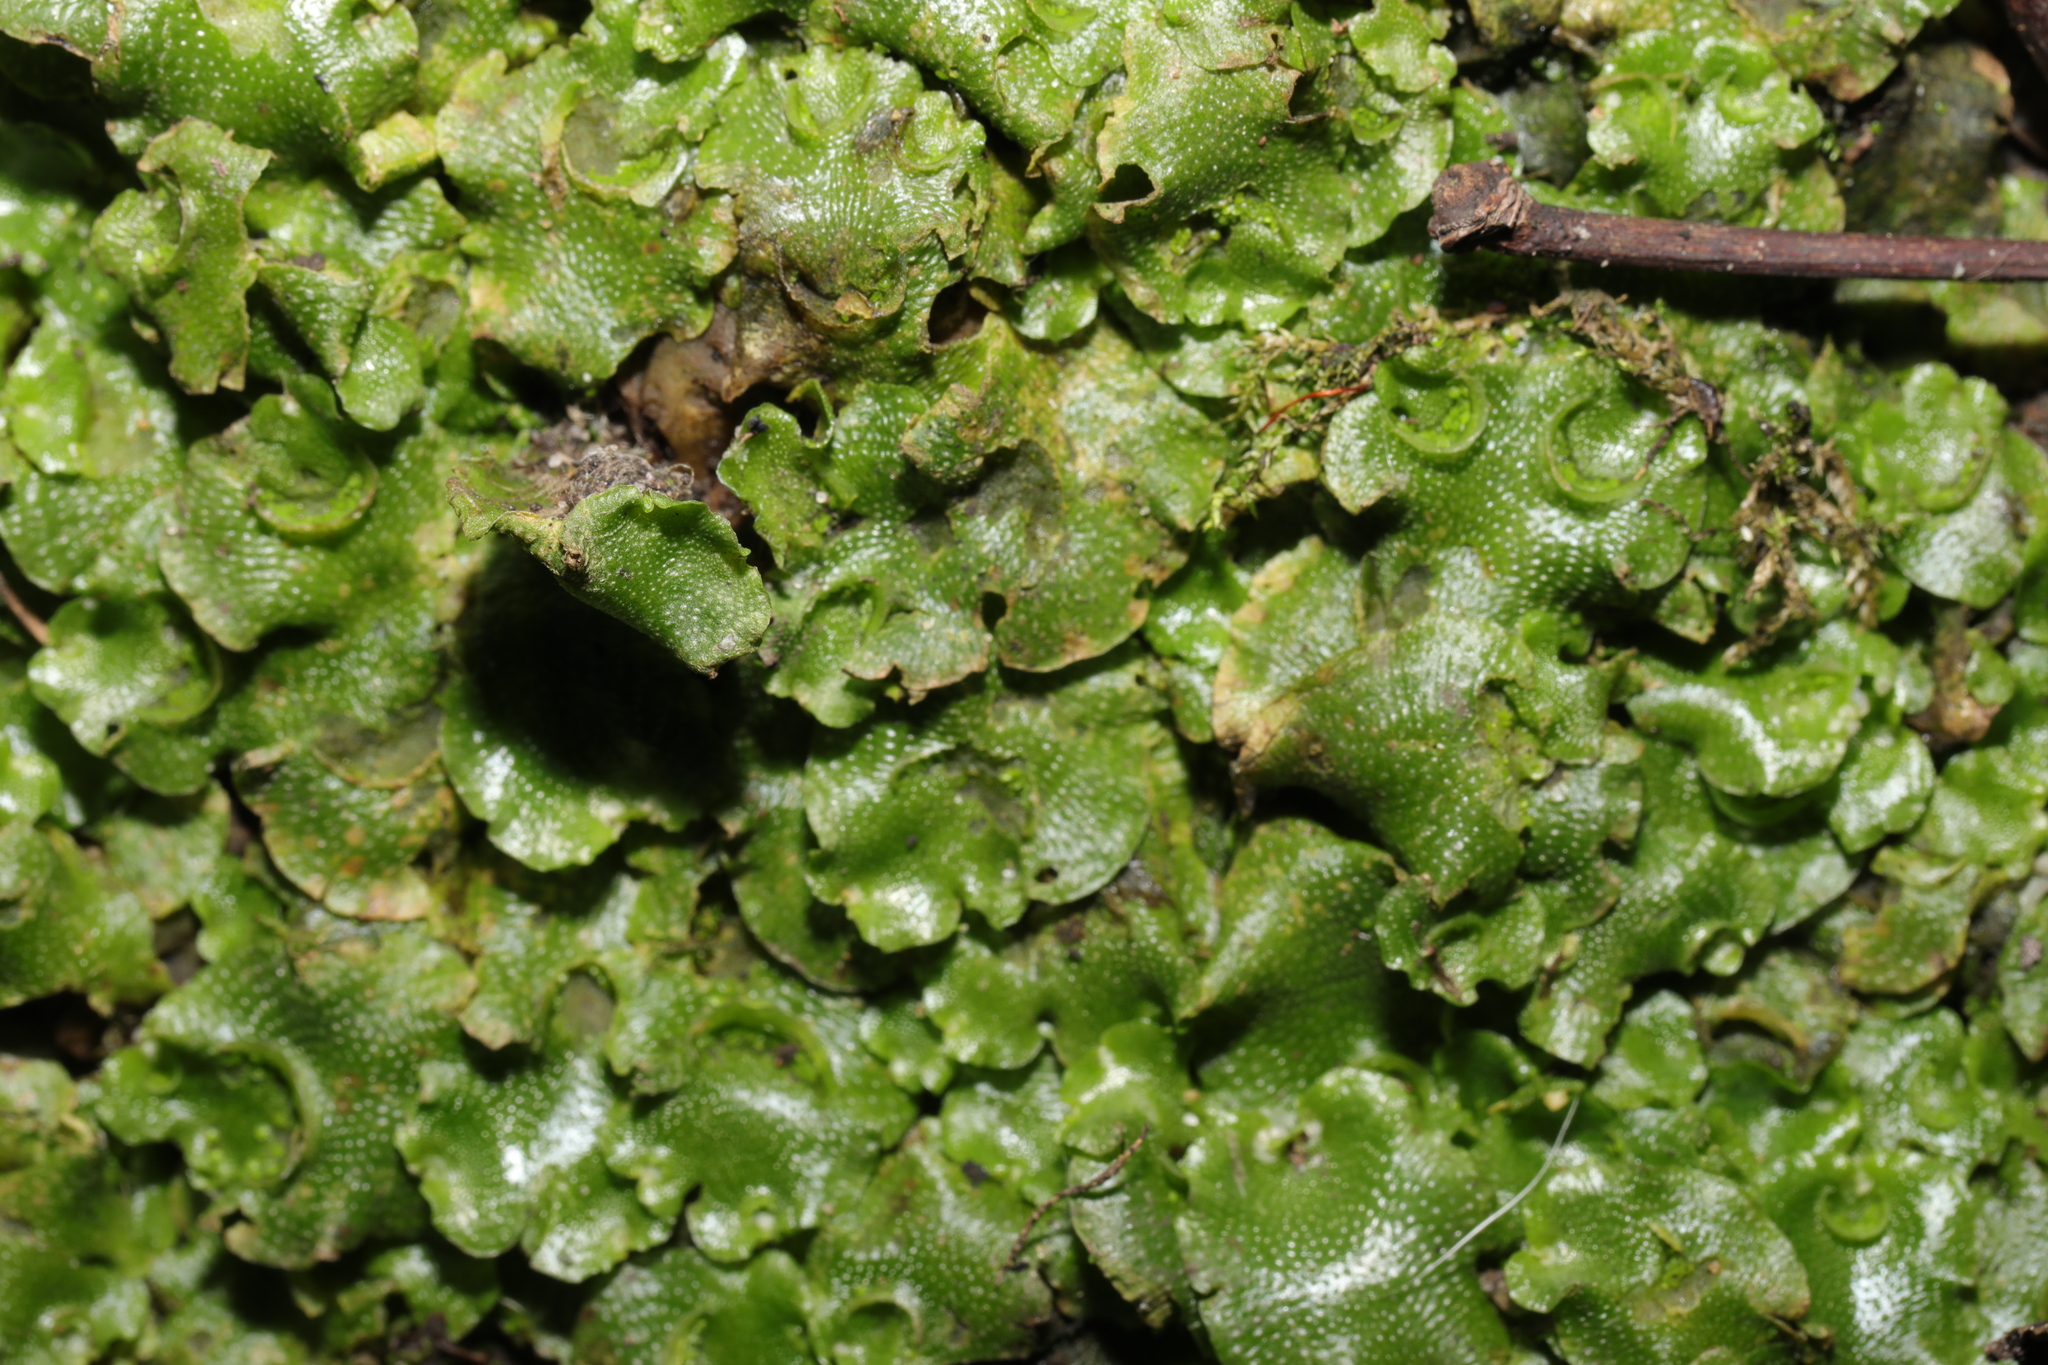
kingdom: Plantae
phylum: Marchantiophyta
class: Marchantiopsida
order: Lunulariales
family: Lunulariaceae
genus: Lunularia
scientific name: Lunularia cruciata
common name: Crescent-cup liverwort
